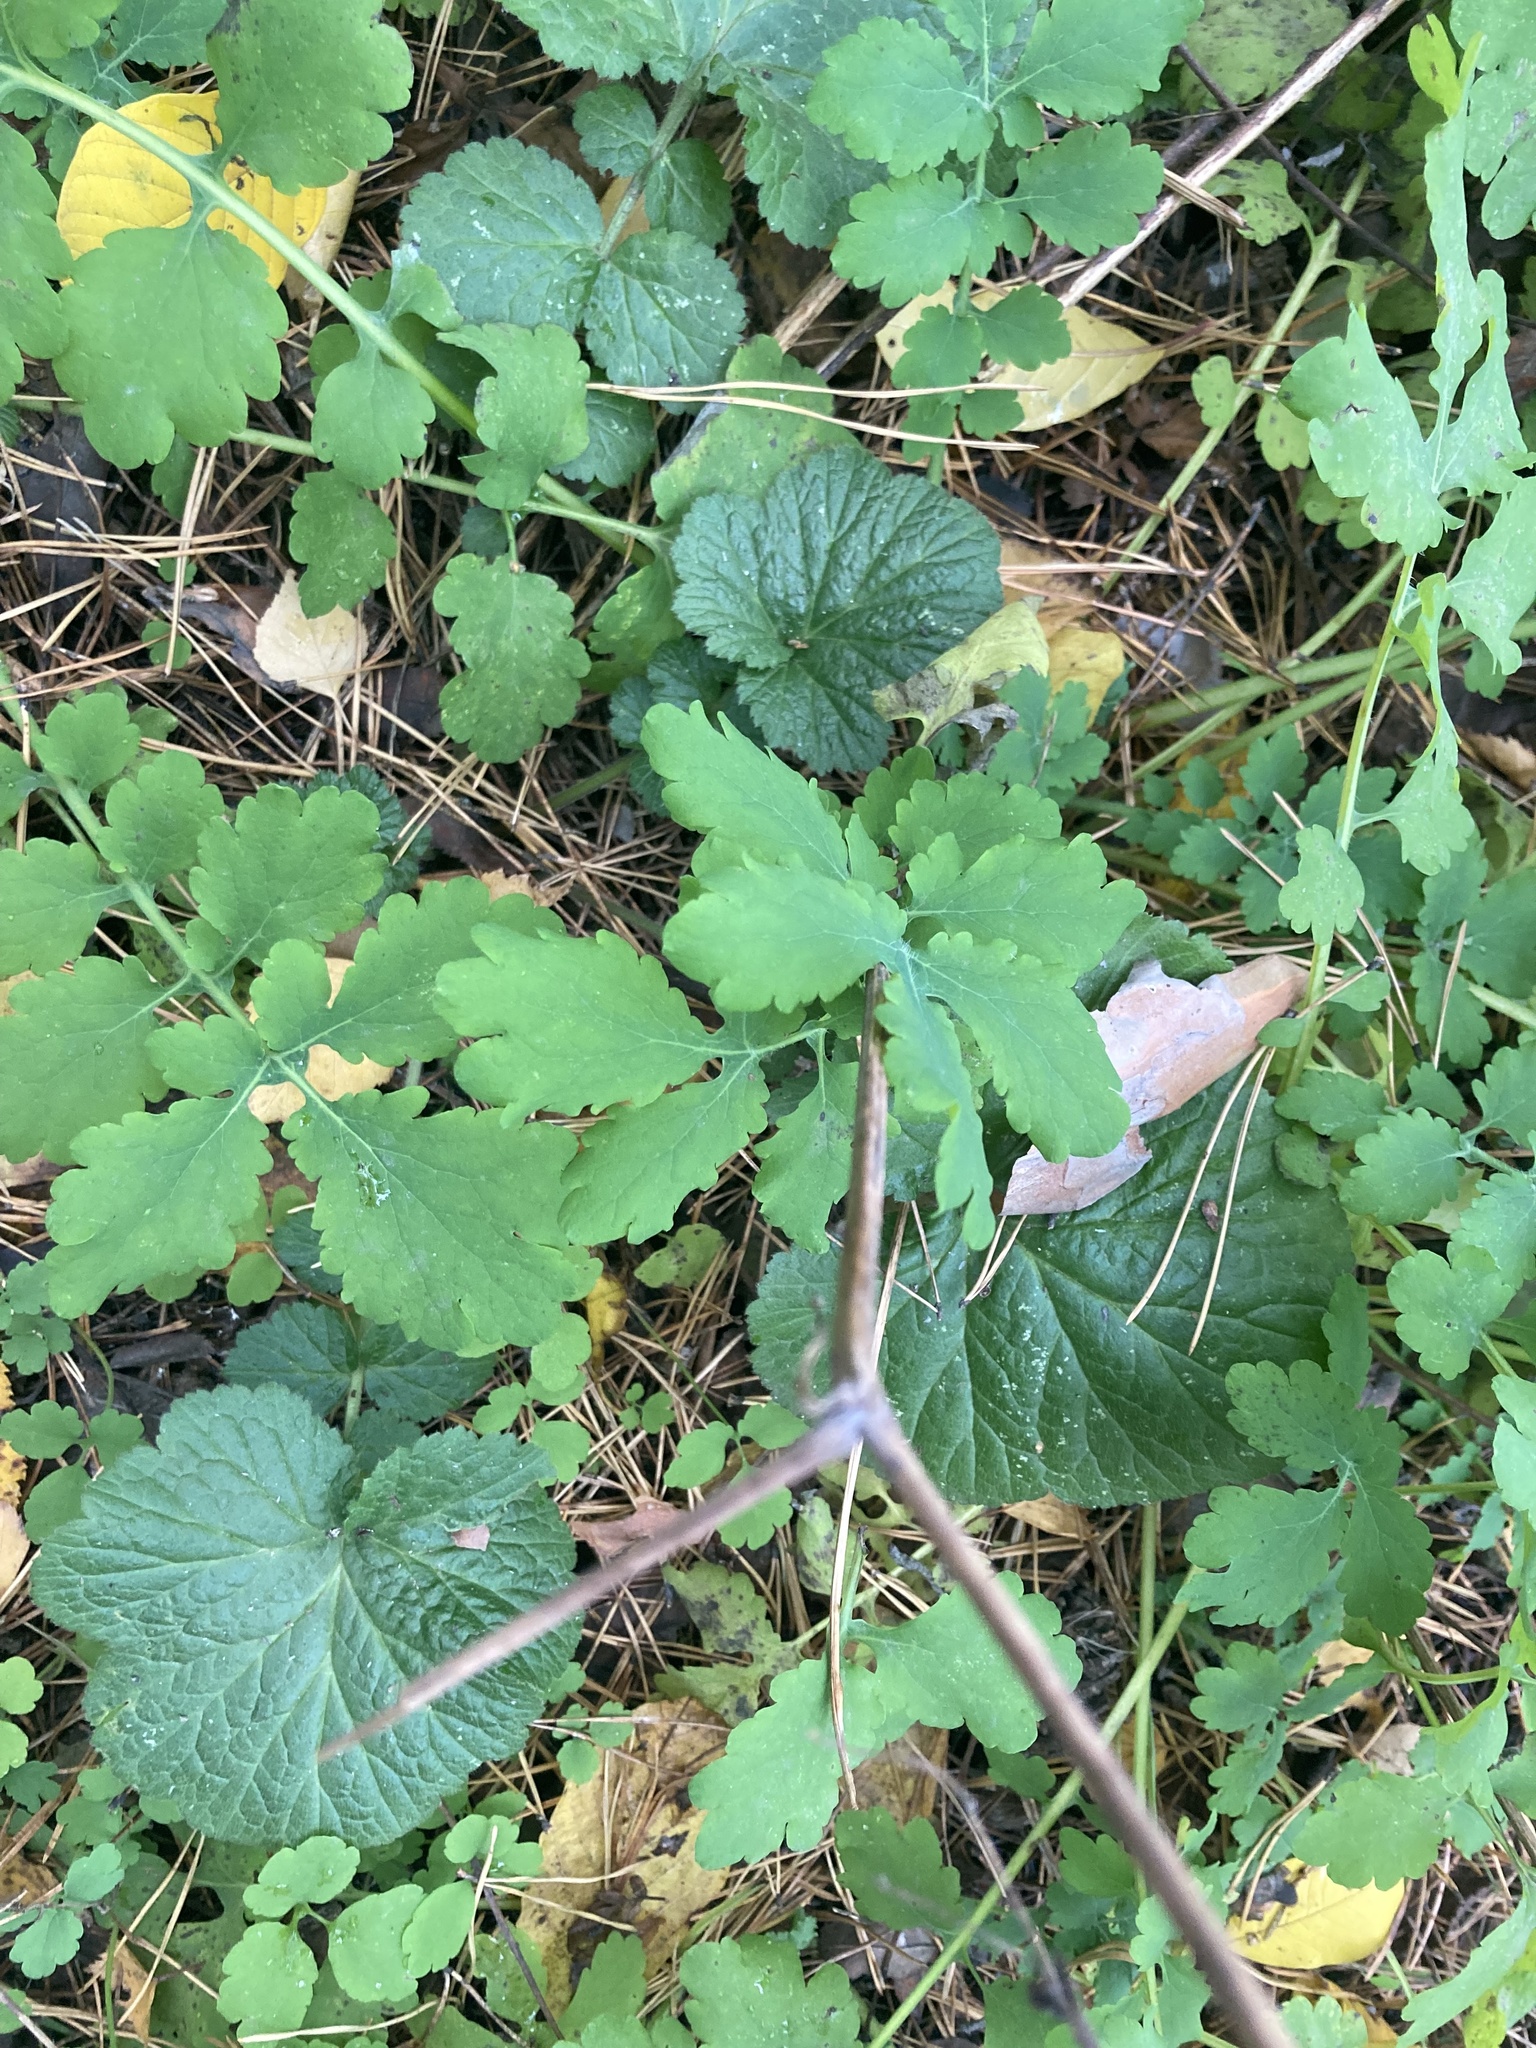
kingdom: Plantae
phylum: Tracheophyta
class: Magnoliopsida
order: Ranunculales
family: Papaveraceae
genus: Chelidonium
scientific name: Chelidonium majus
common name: Greater celandine
